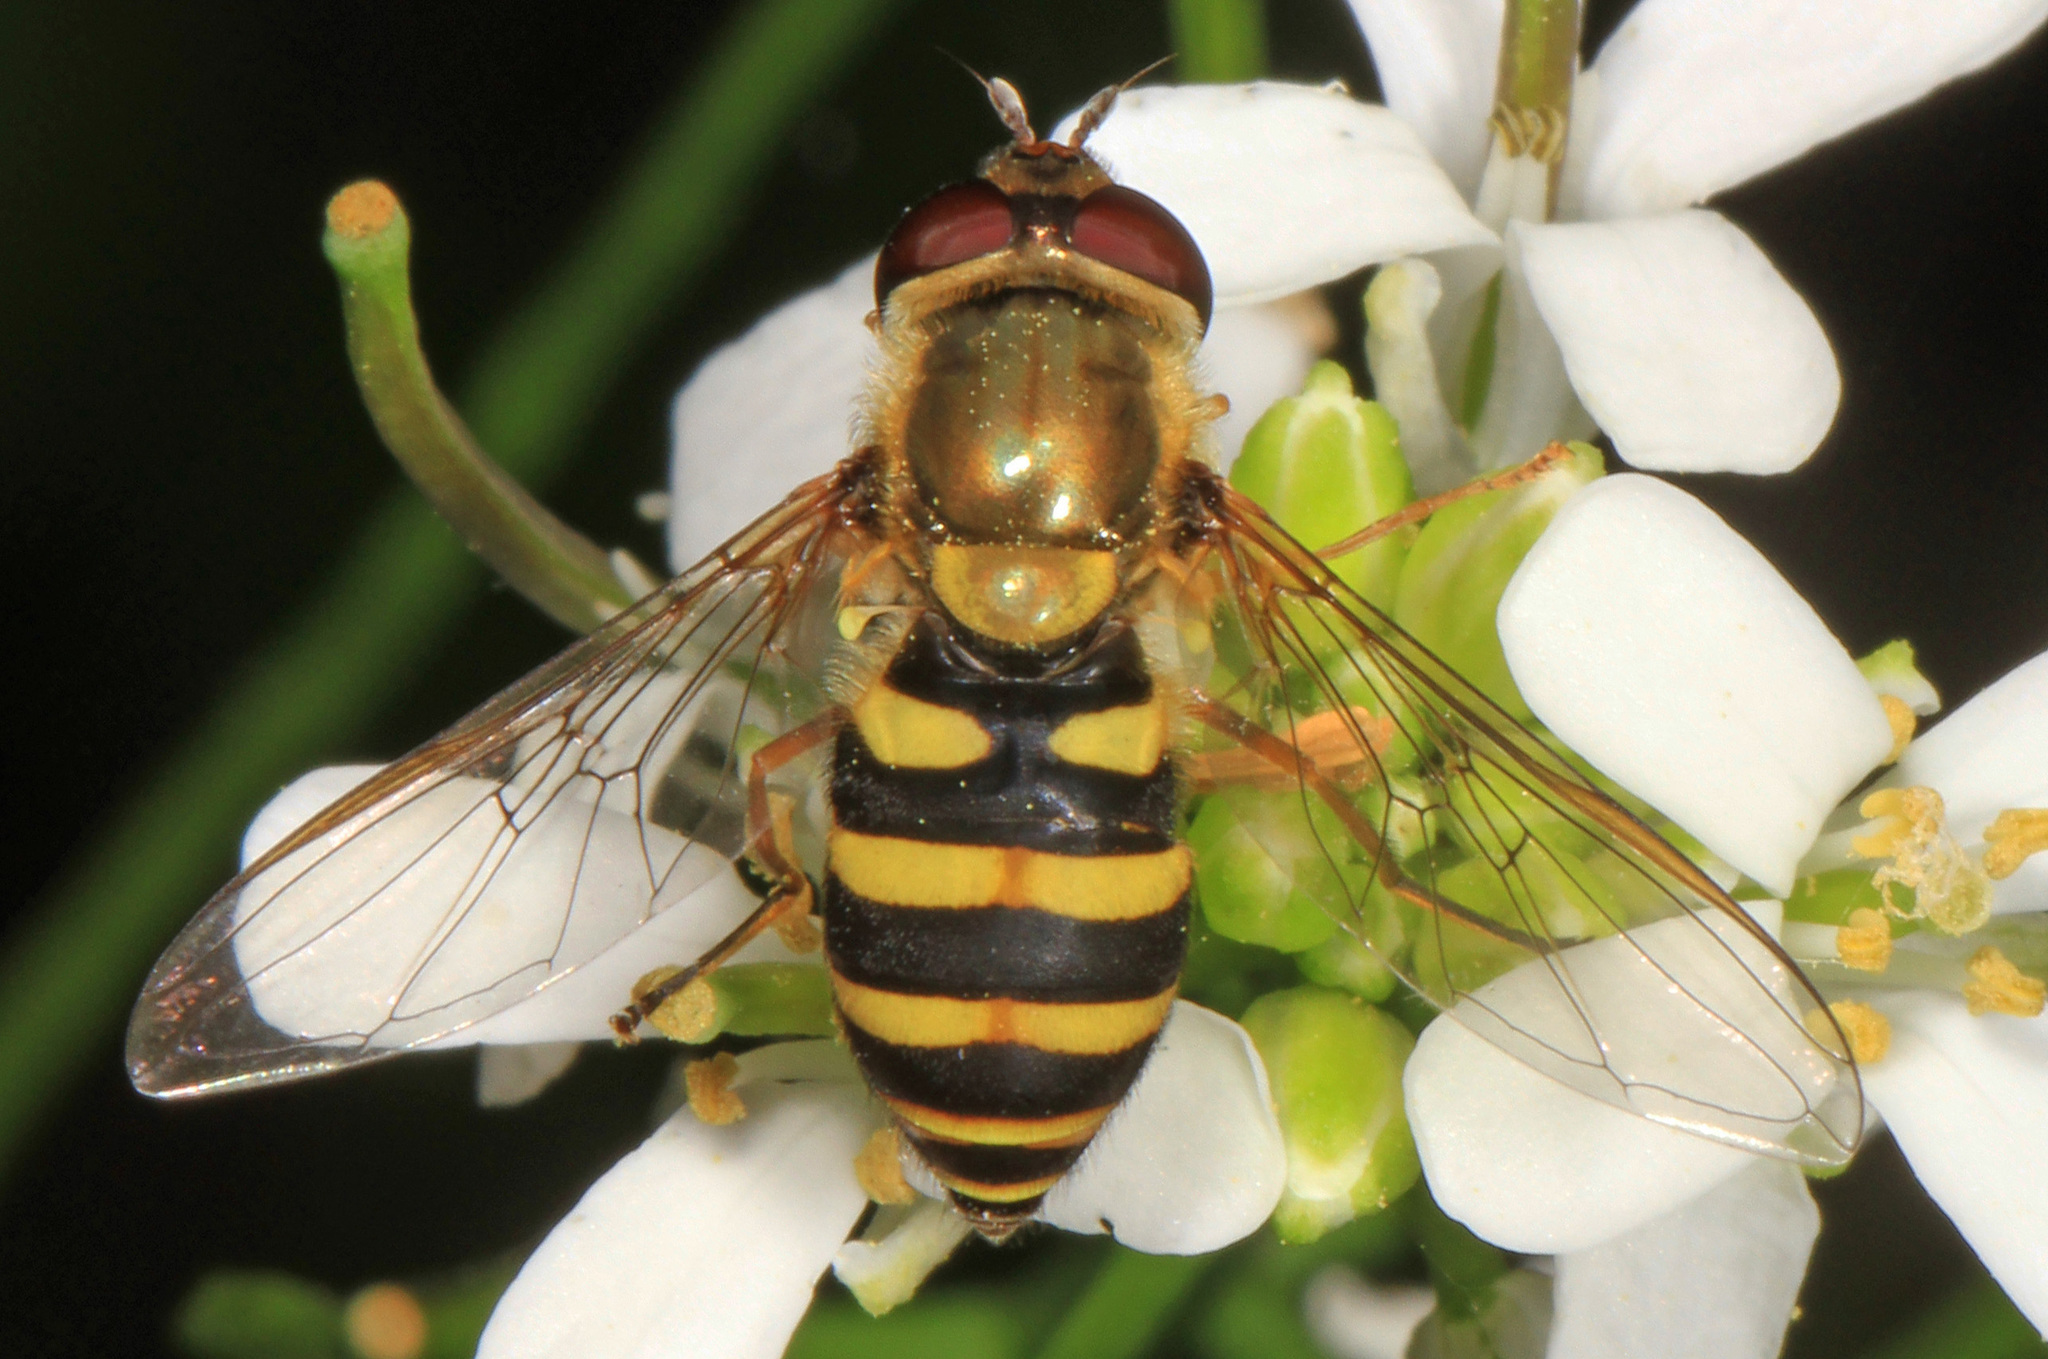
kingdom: Animalia
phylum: Arthropoda
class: Insecta
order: Diptera
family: Syrphidae
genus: Syrphus
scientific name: Syrphus
